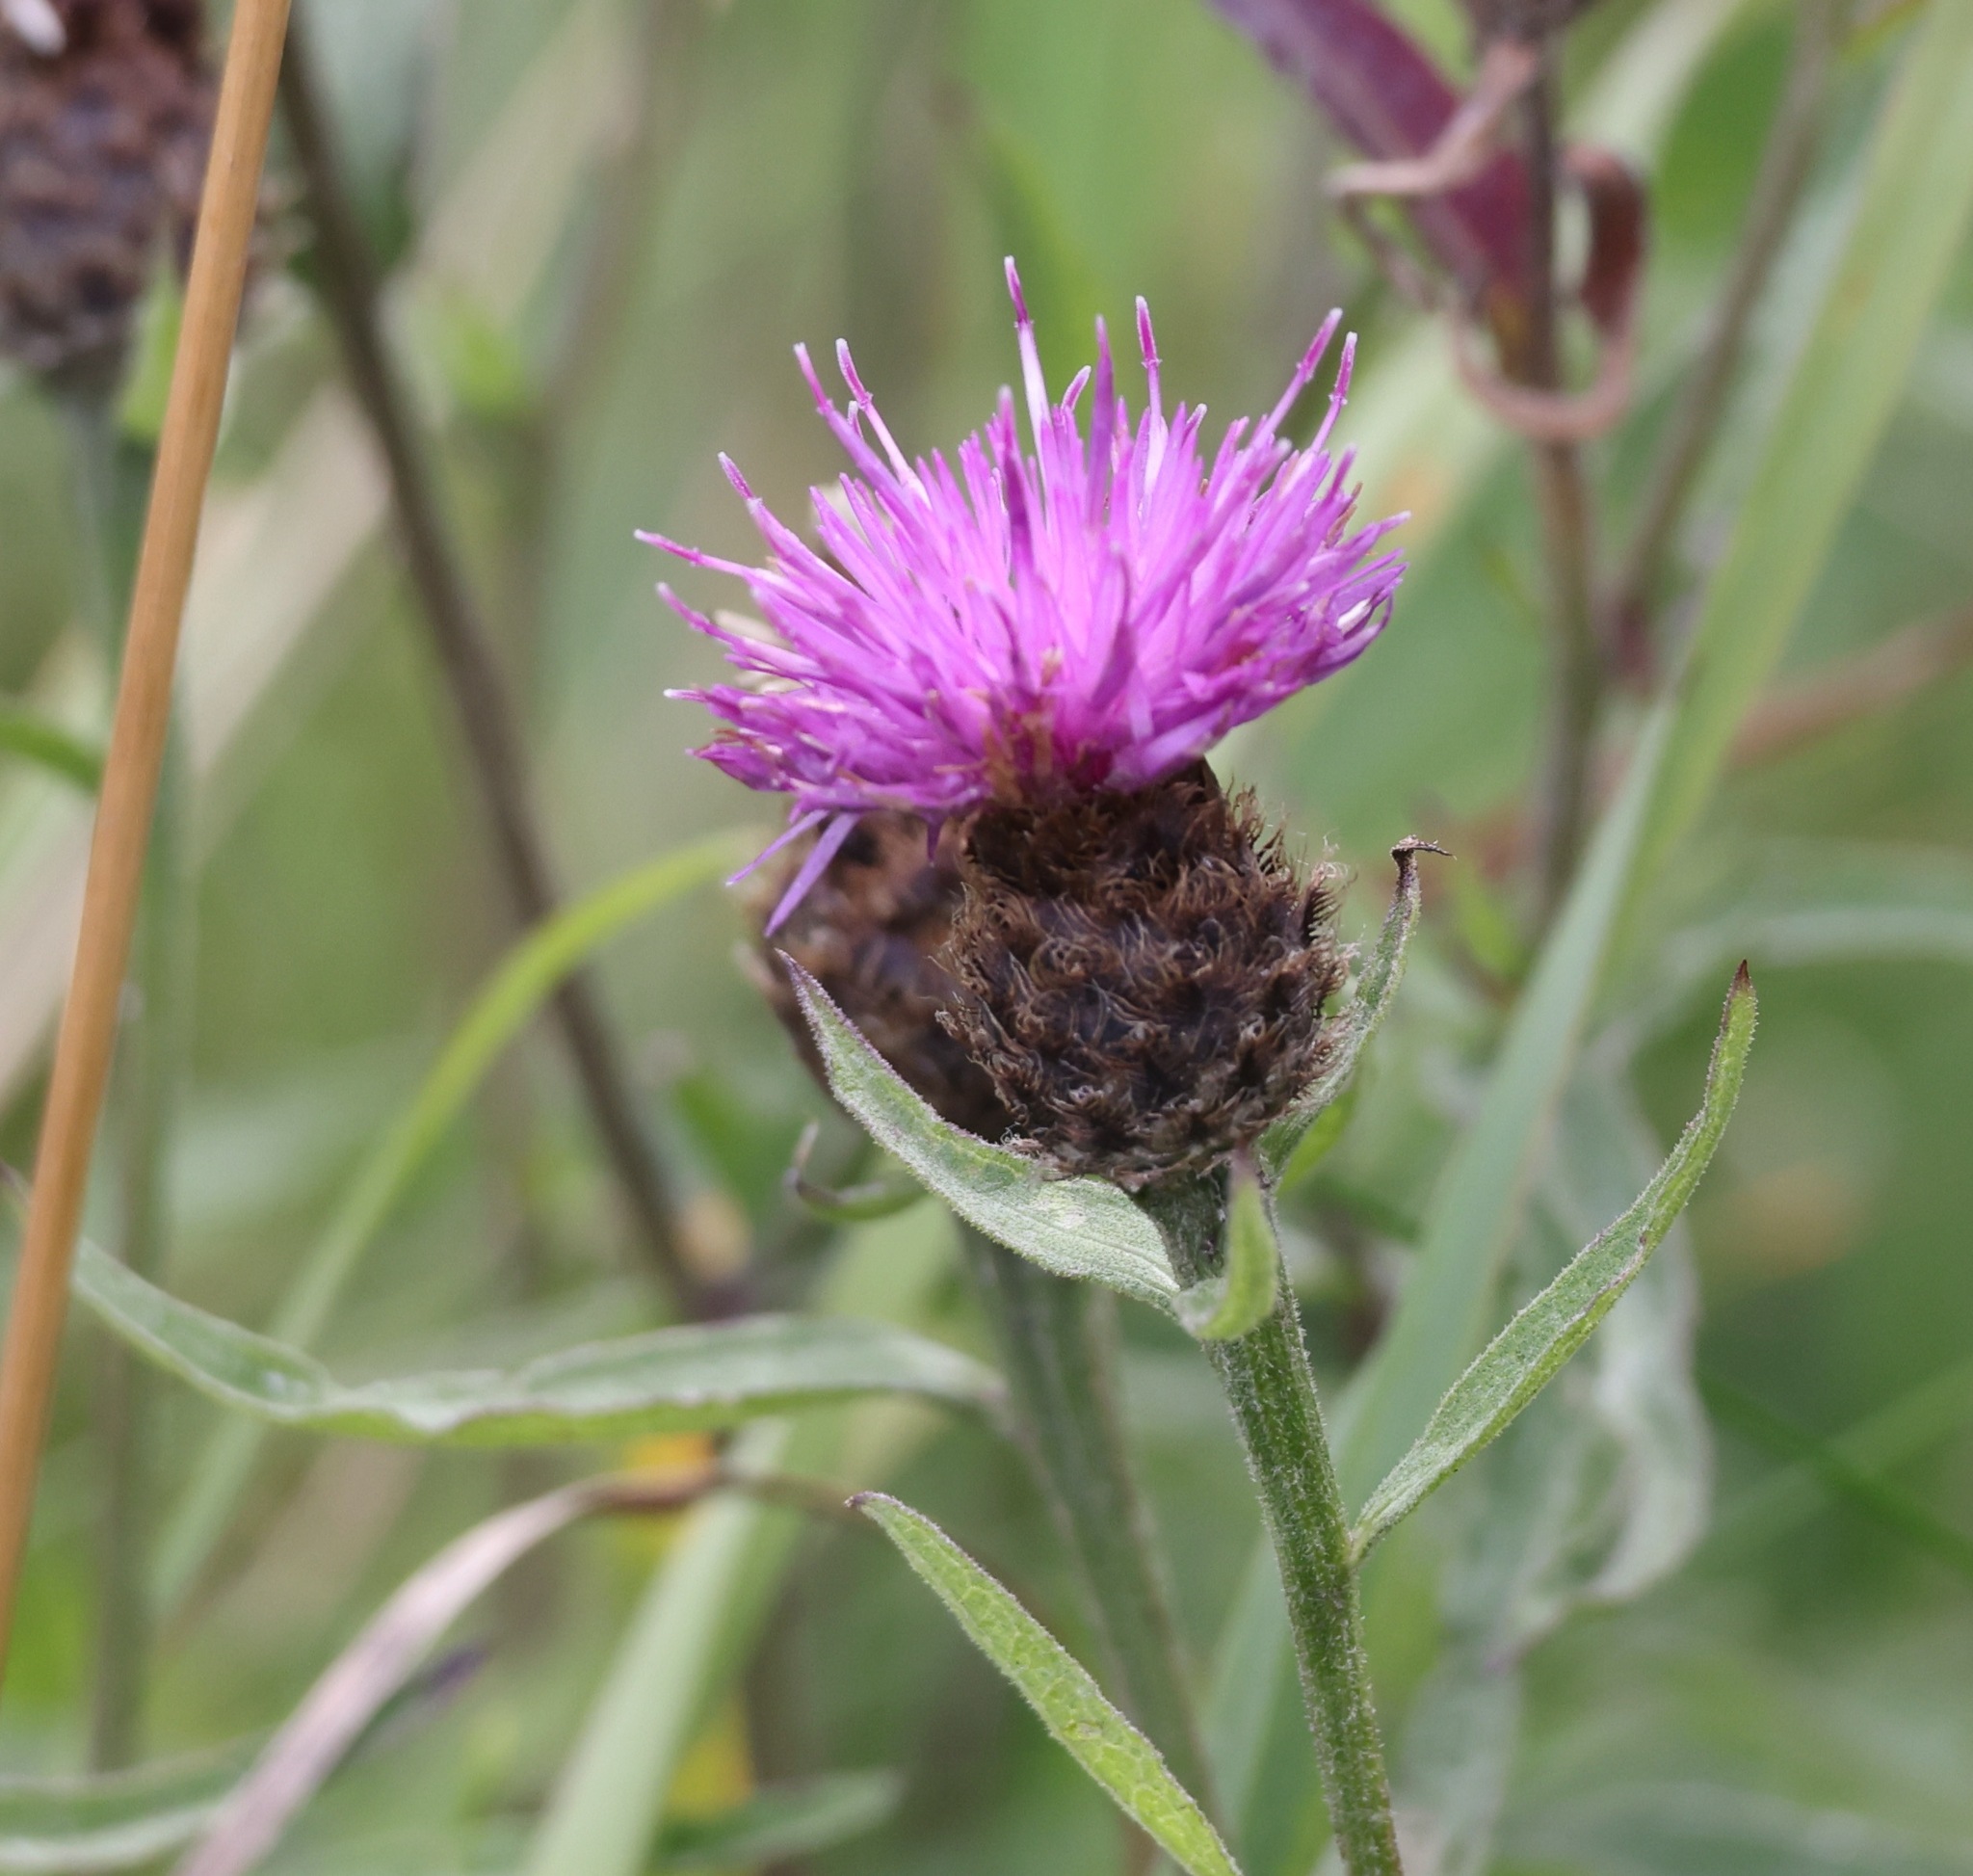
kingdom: Plantae
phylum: Tracheophyta
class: Magnoliopsida
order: Asterales
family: Asteraceae
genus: Centaurea
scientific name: Centaurea nigra
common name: Lesser knapweed
